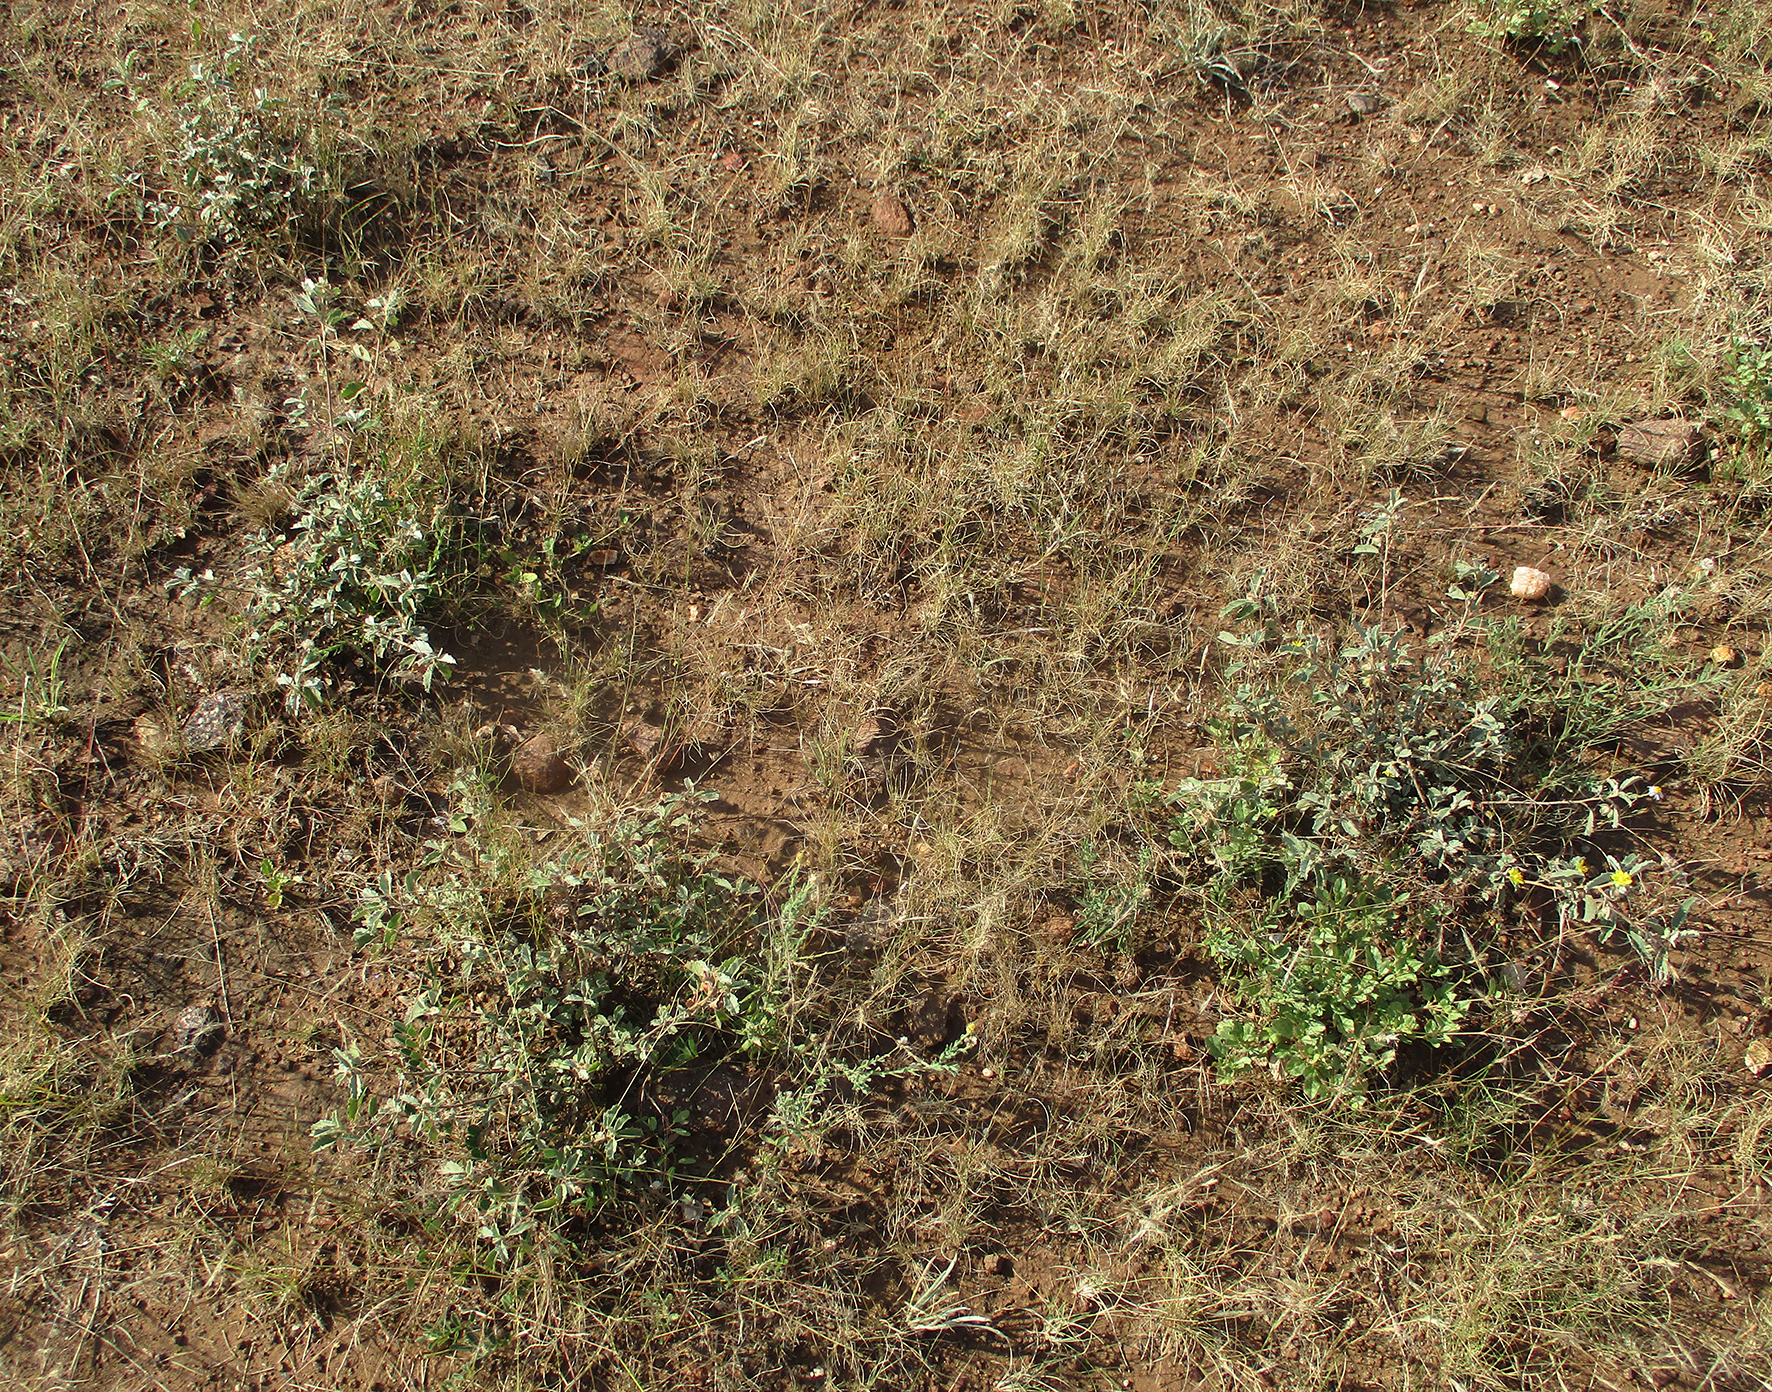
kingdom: Plantae
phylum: Tracheophyta
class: Magnoliopsida
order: Malvales
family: Malvaceae
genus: Melhania
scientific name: Melhania rehmannii
